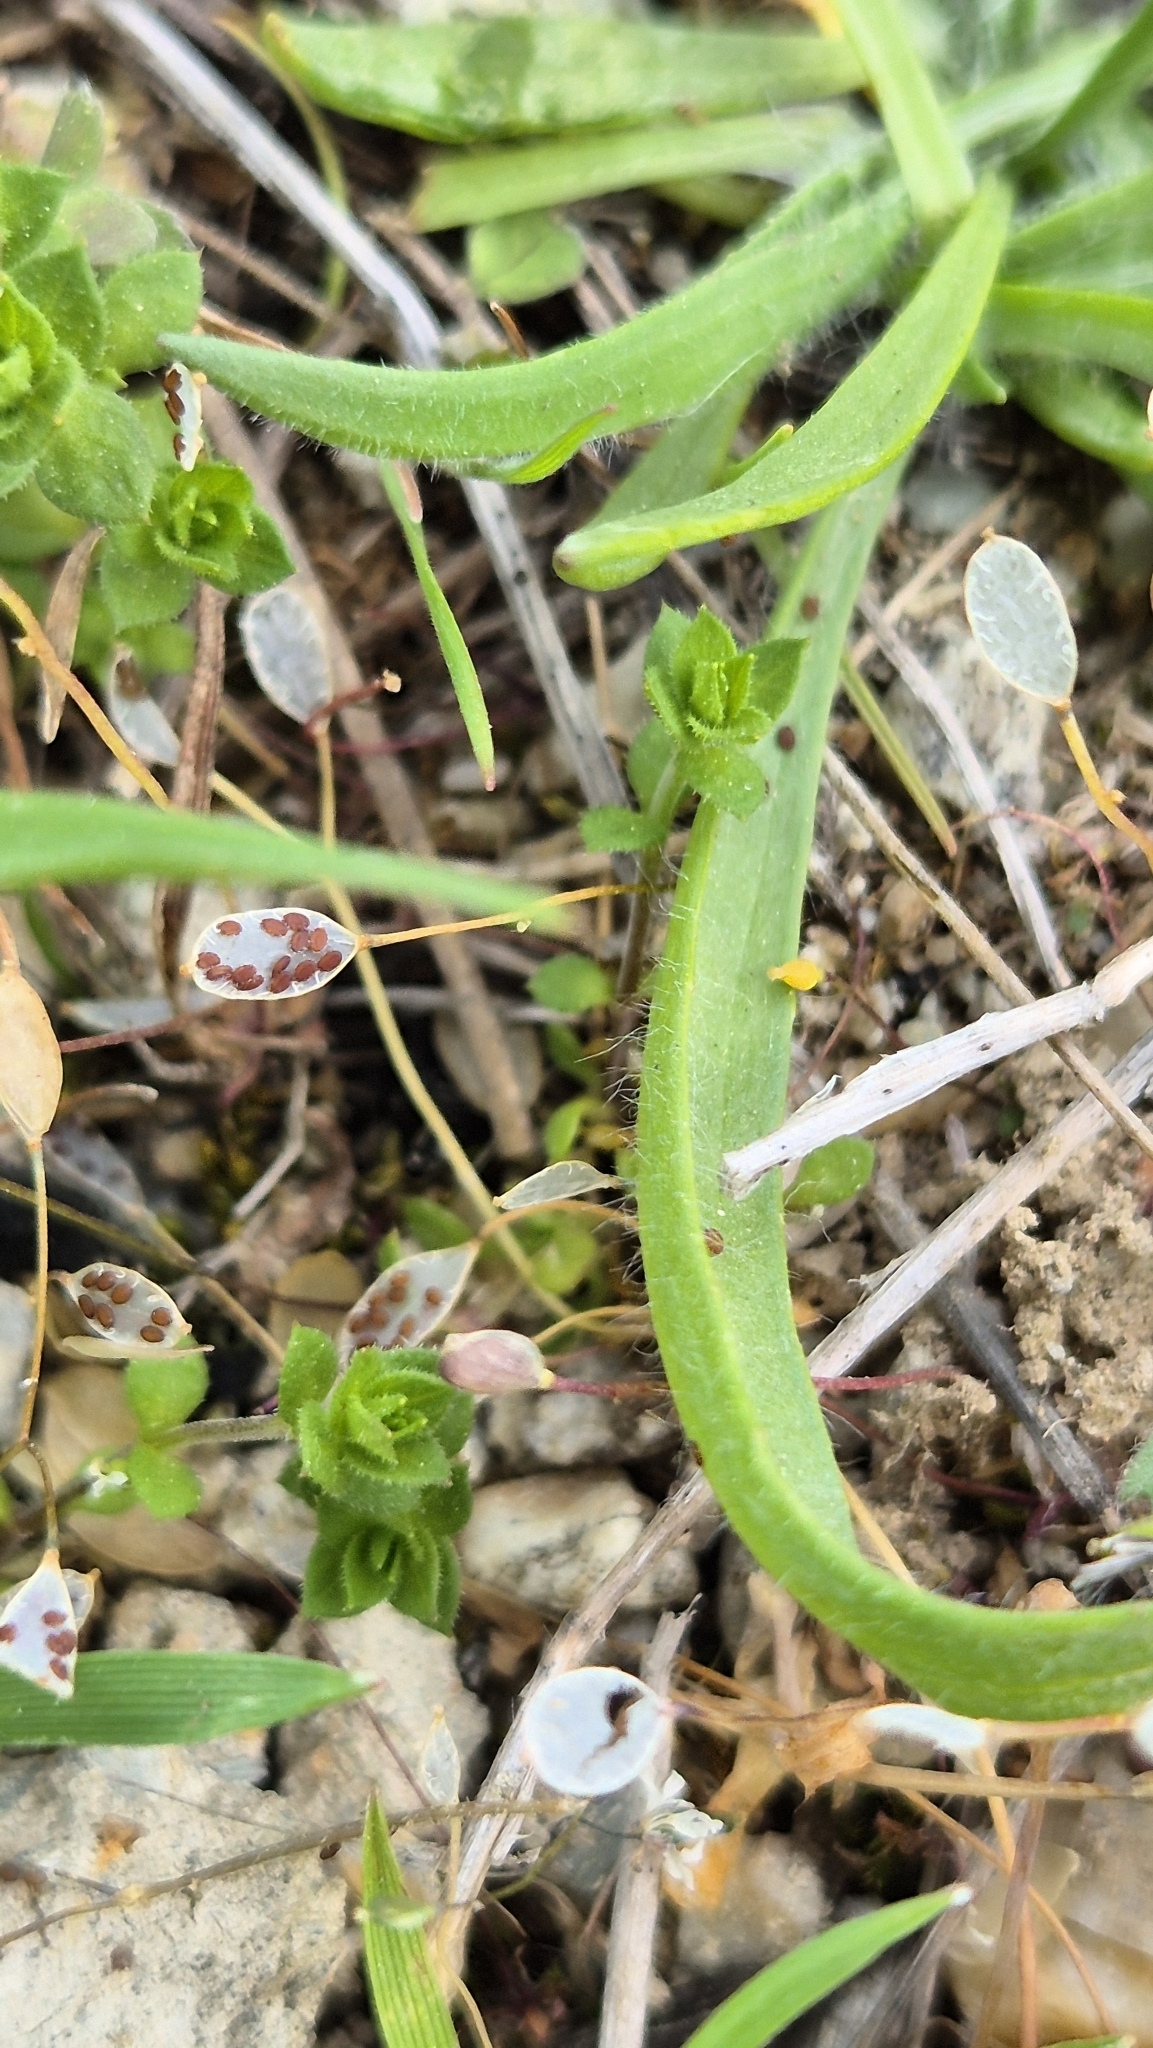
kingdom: Plantae
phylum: Tracheophyta
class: Magnoliopsida
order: Brassicales
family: Brassicaceae
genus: Draba
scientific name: Draba verna
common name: Spring draba
